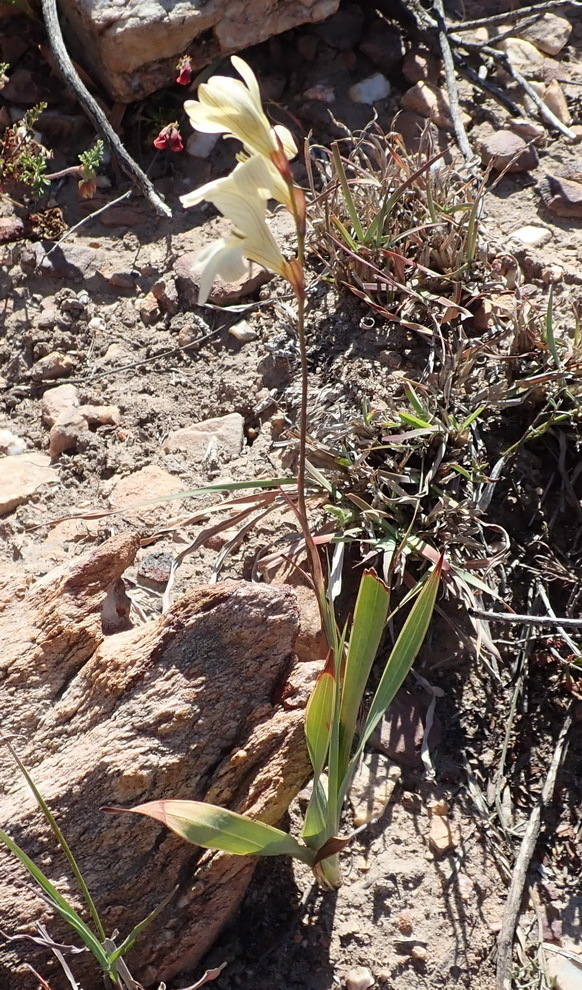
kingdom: Plantae
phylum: Tracheophyta
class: Liliopsida
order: Asparagales
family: Iridaceae
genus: Tritonia
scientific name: Tritonia gladiolaris
